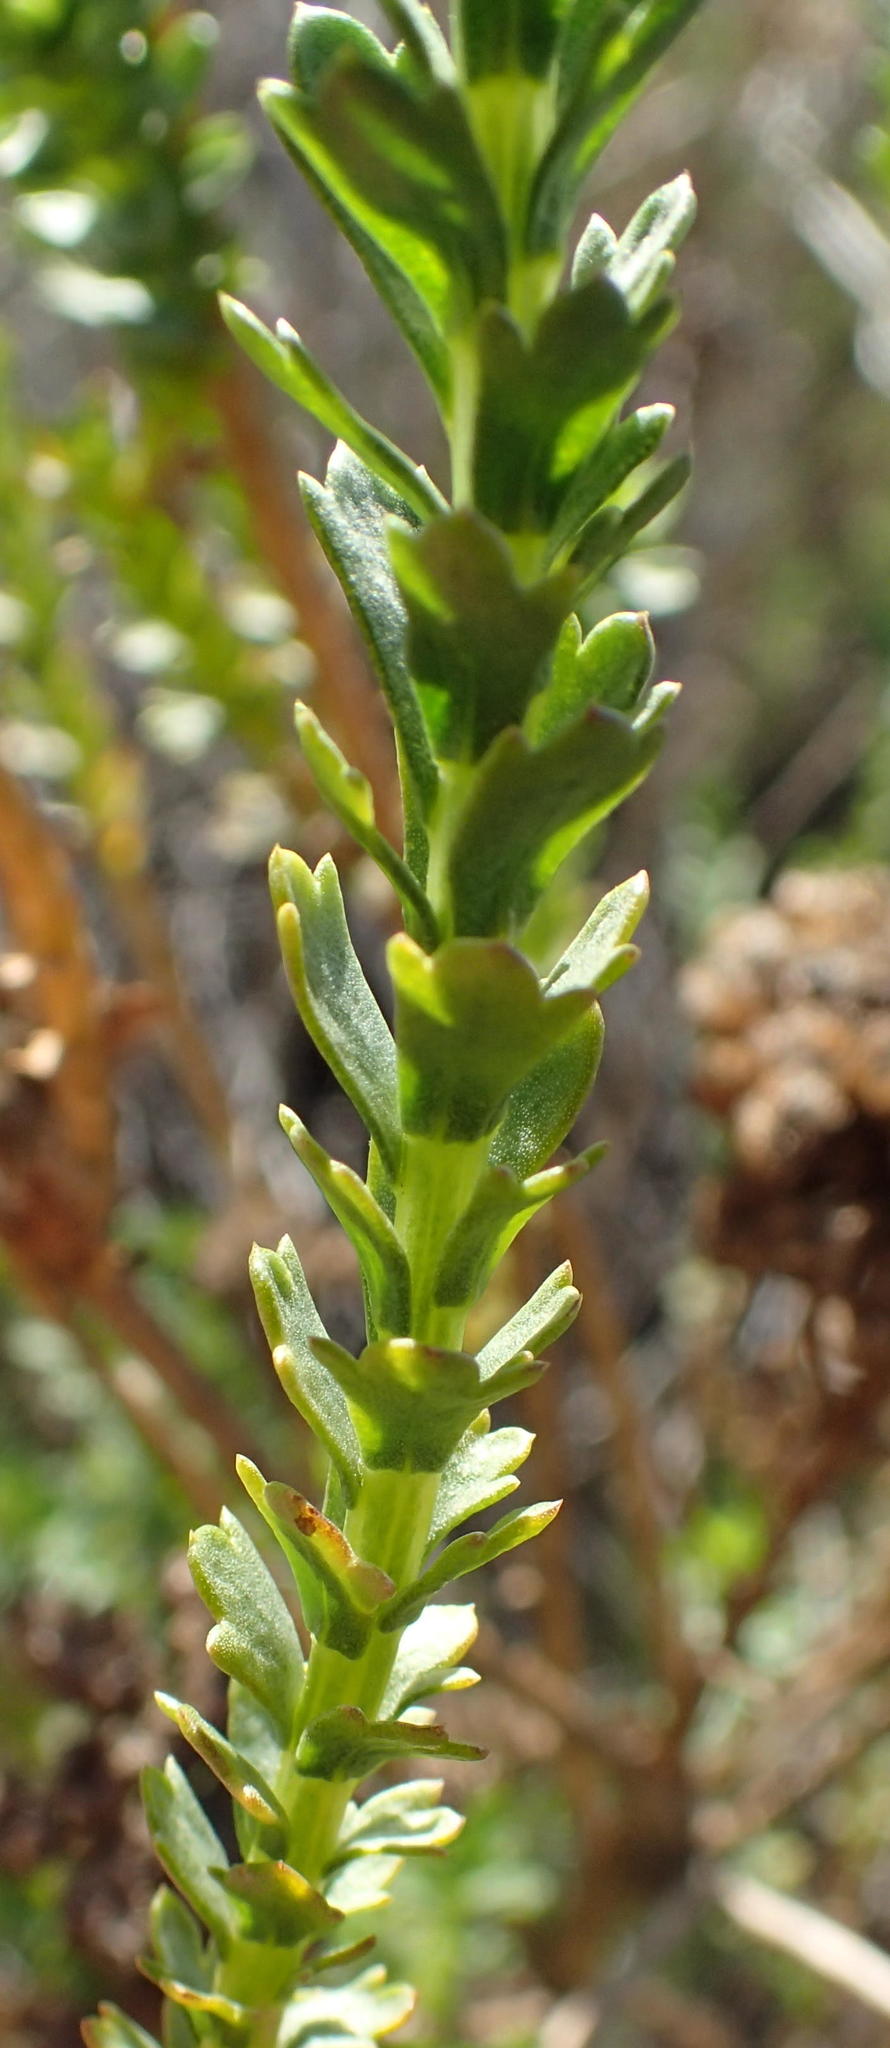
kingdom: Plantae
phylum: Tracheophyta
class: Magnoliopsida
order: Asterales
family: Asteraceae
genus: Athanasia
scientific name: Athanasia trifurcata
